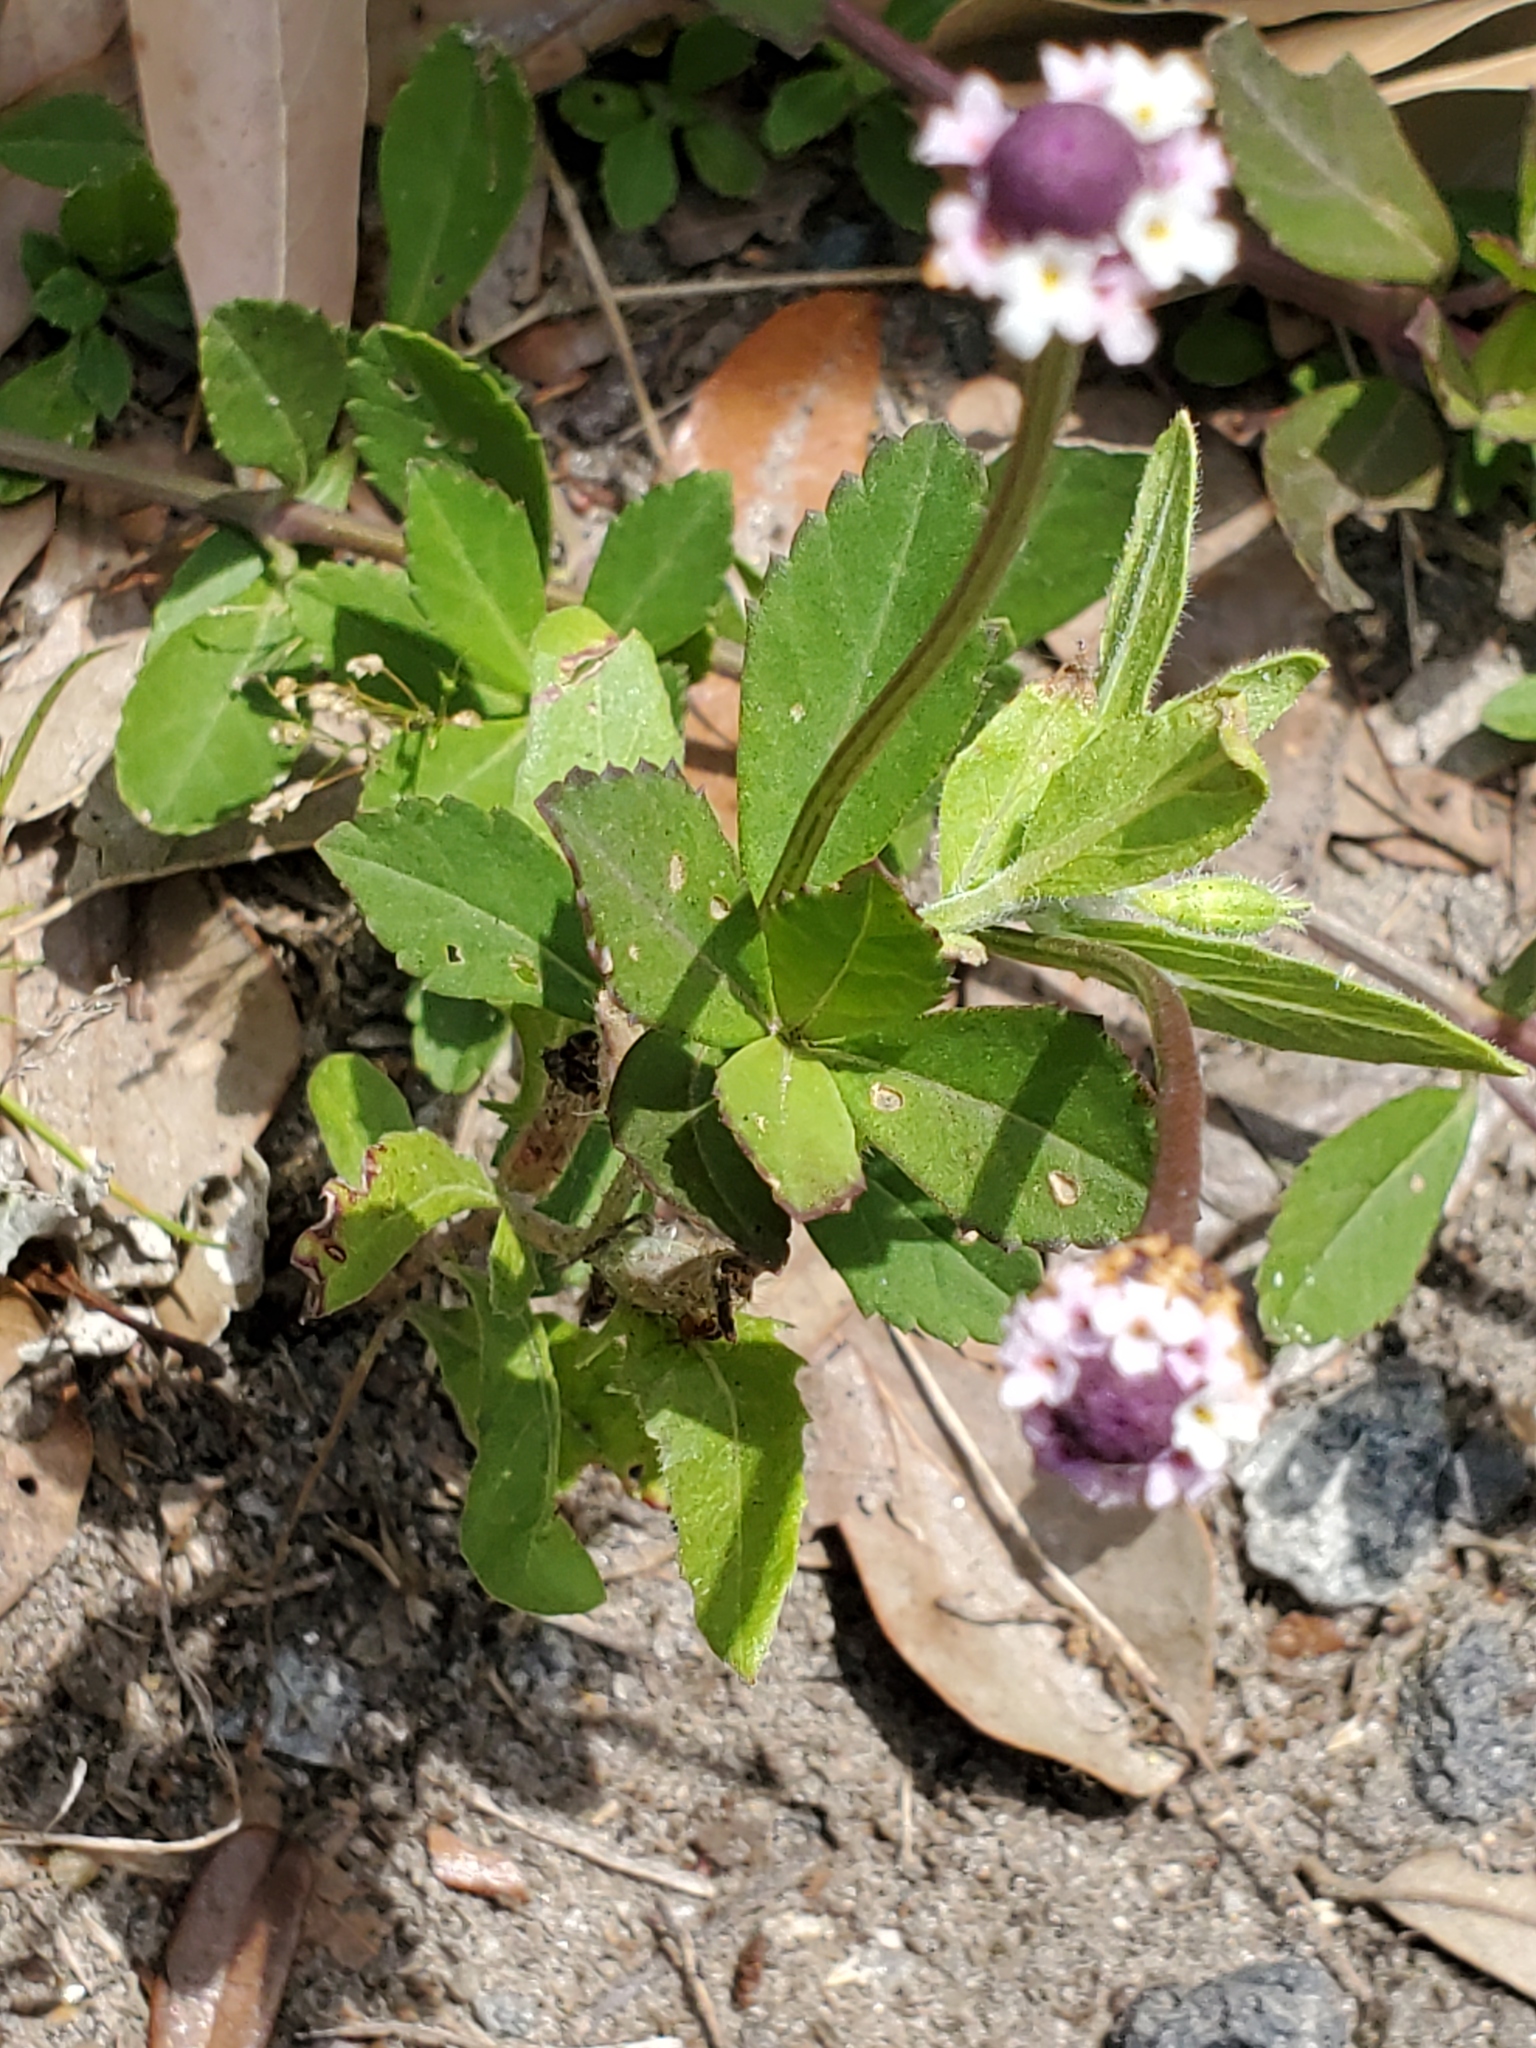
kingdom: Plantae
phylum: Tracheophyta
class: Magnoliopsida
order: Lamiales
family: Verbenaceae
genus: Phyla
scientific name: Phyla nodiflora
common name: Frogfruit
